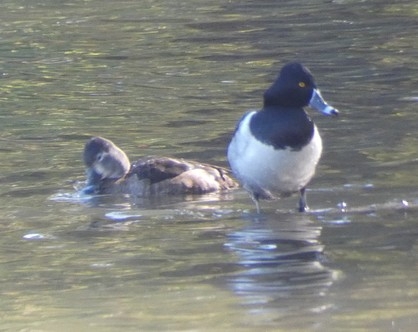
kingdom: Animalia
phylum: Chordata
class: Aves
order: Anseriformes
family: Anatidae
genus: Aythya
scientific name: Aythya collaris
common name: Ring-necked duck
